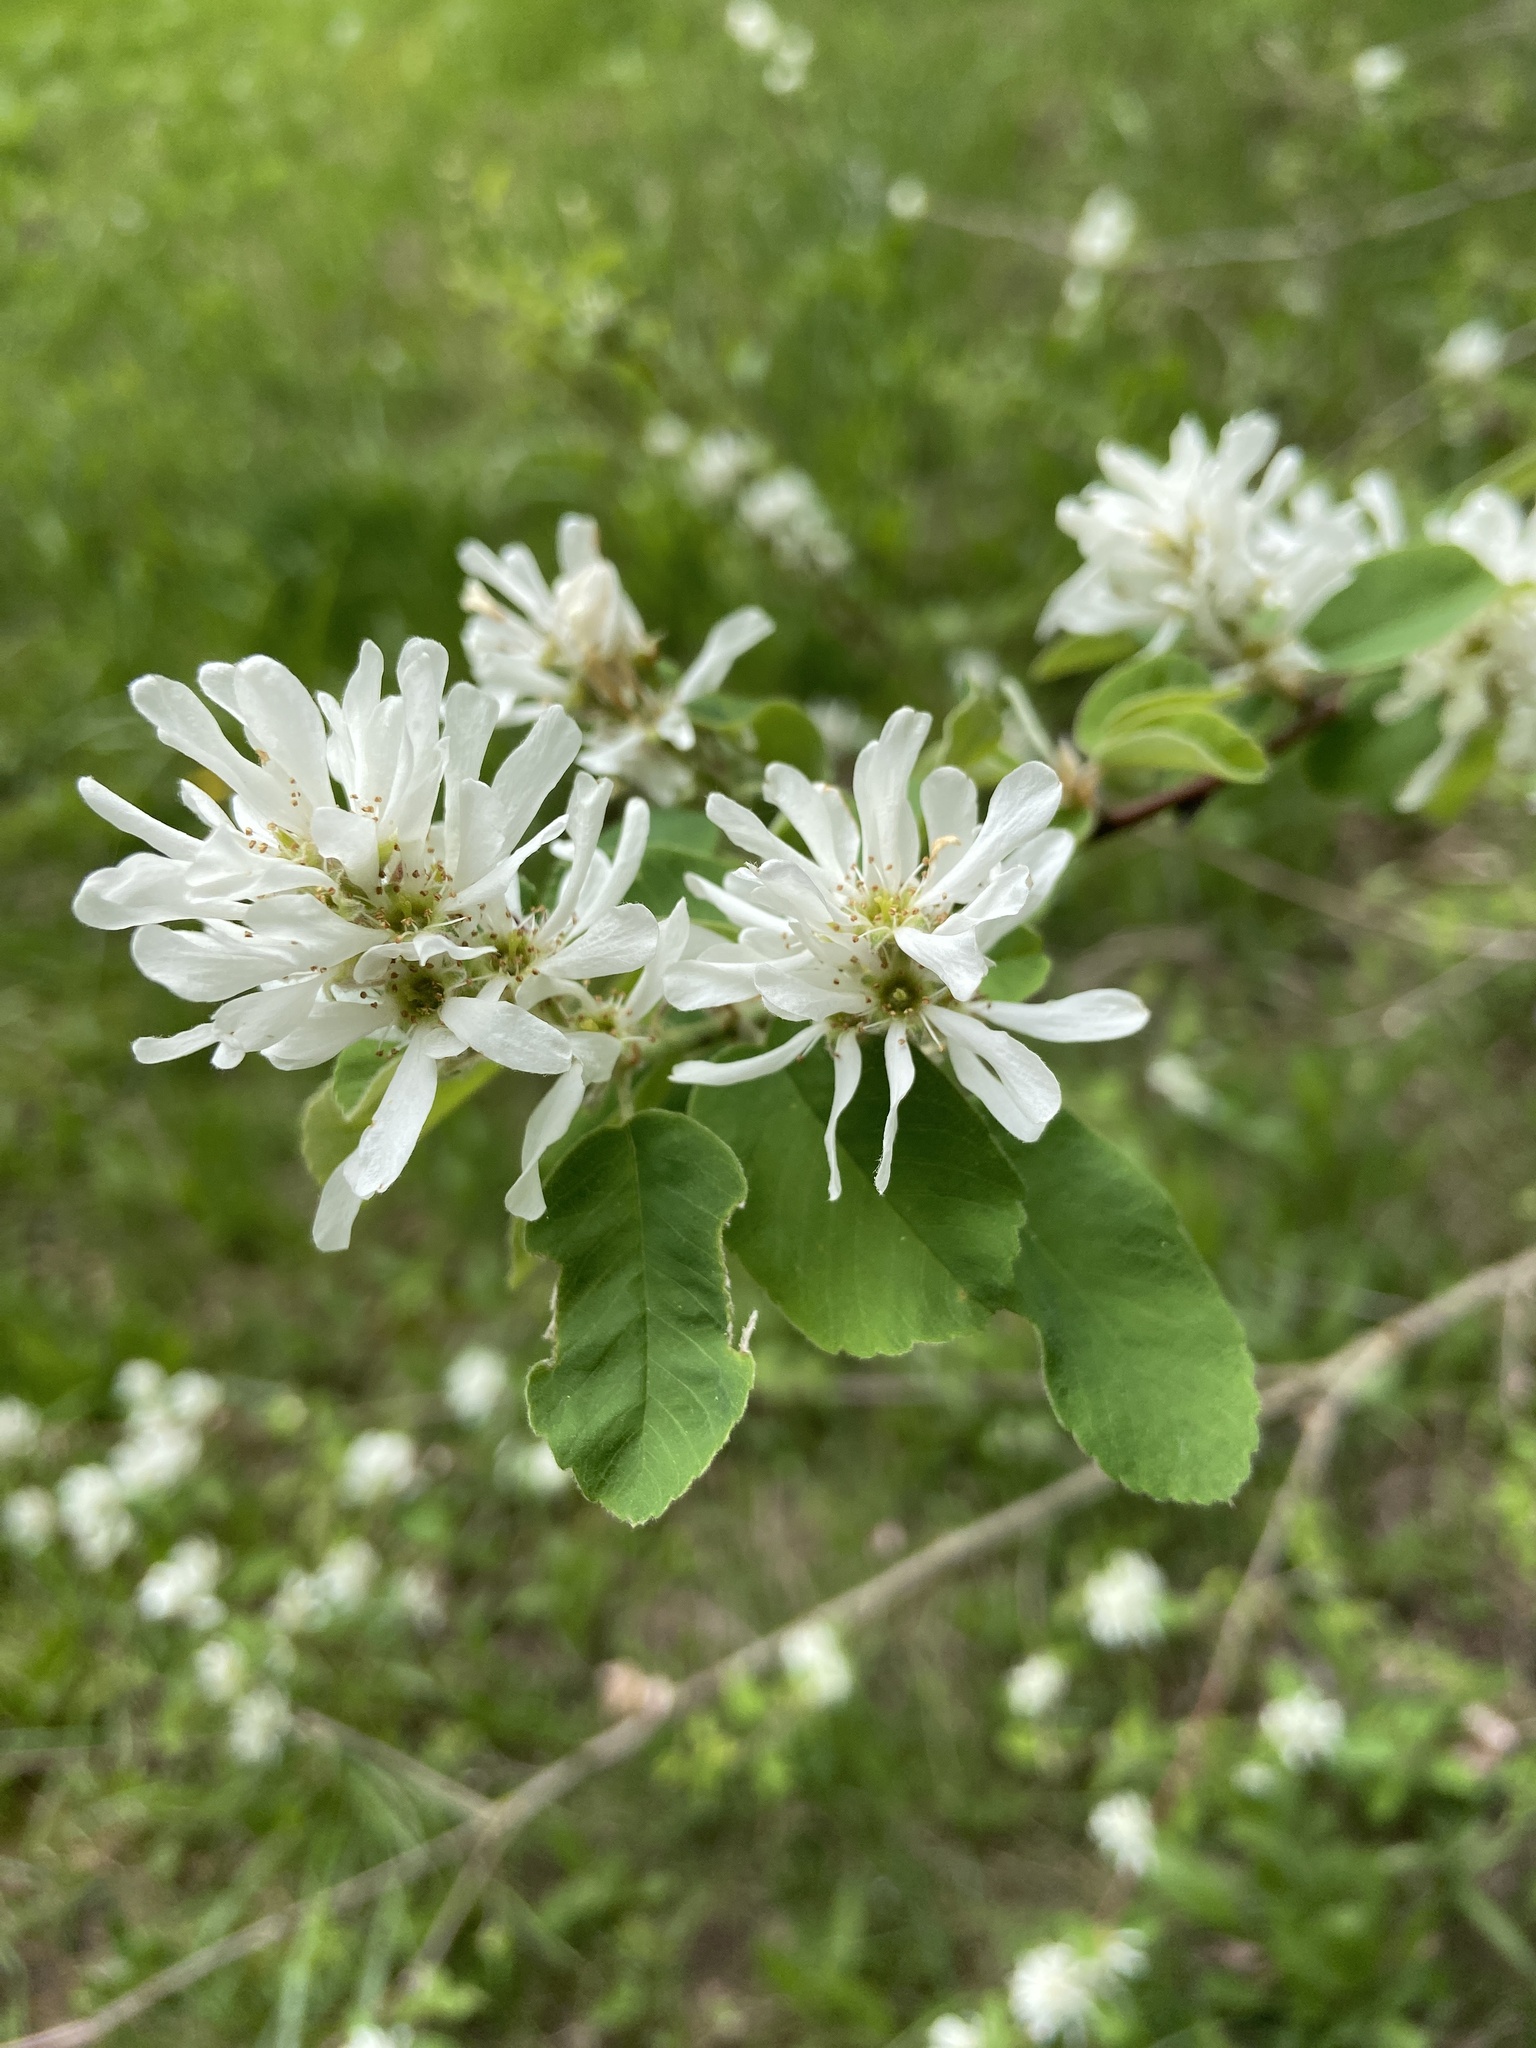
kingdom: Plantae
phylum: Tracheophyta
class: Magnoliopsida
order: Rosales
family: Rosaceae
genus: Amelanchier
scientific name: Amelanchier alnifolia
